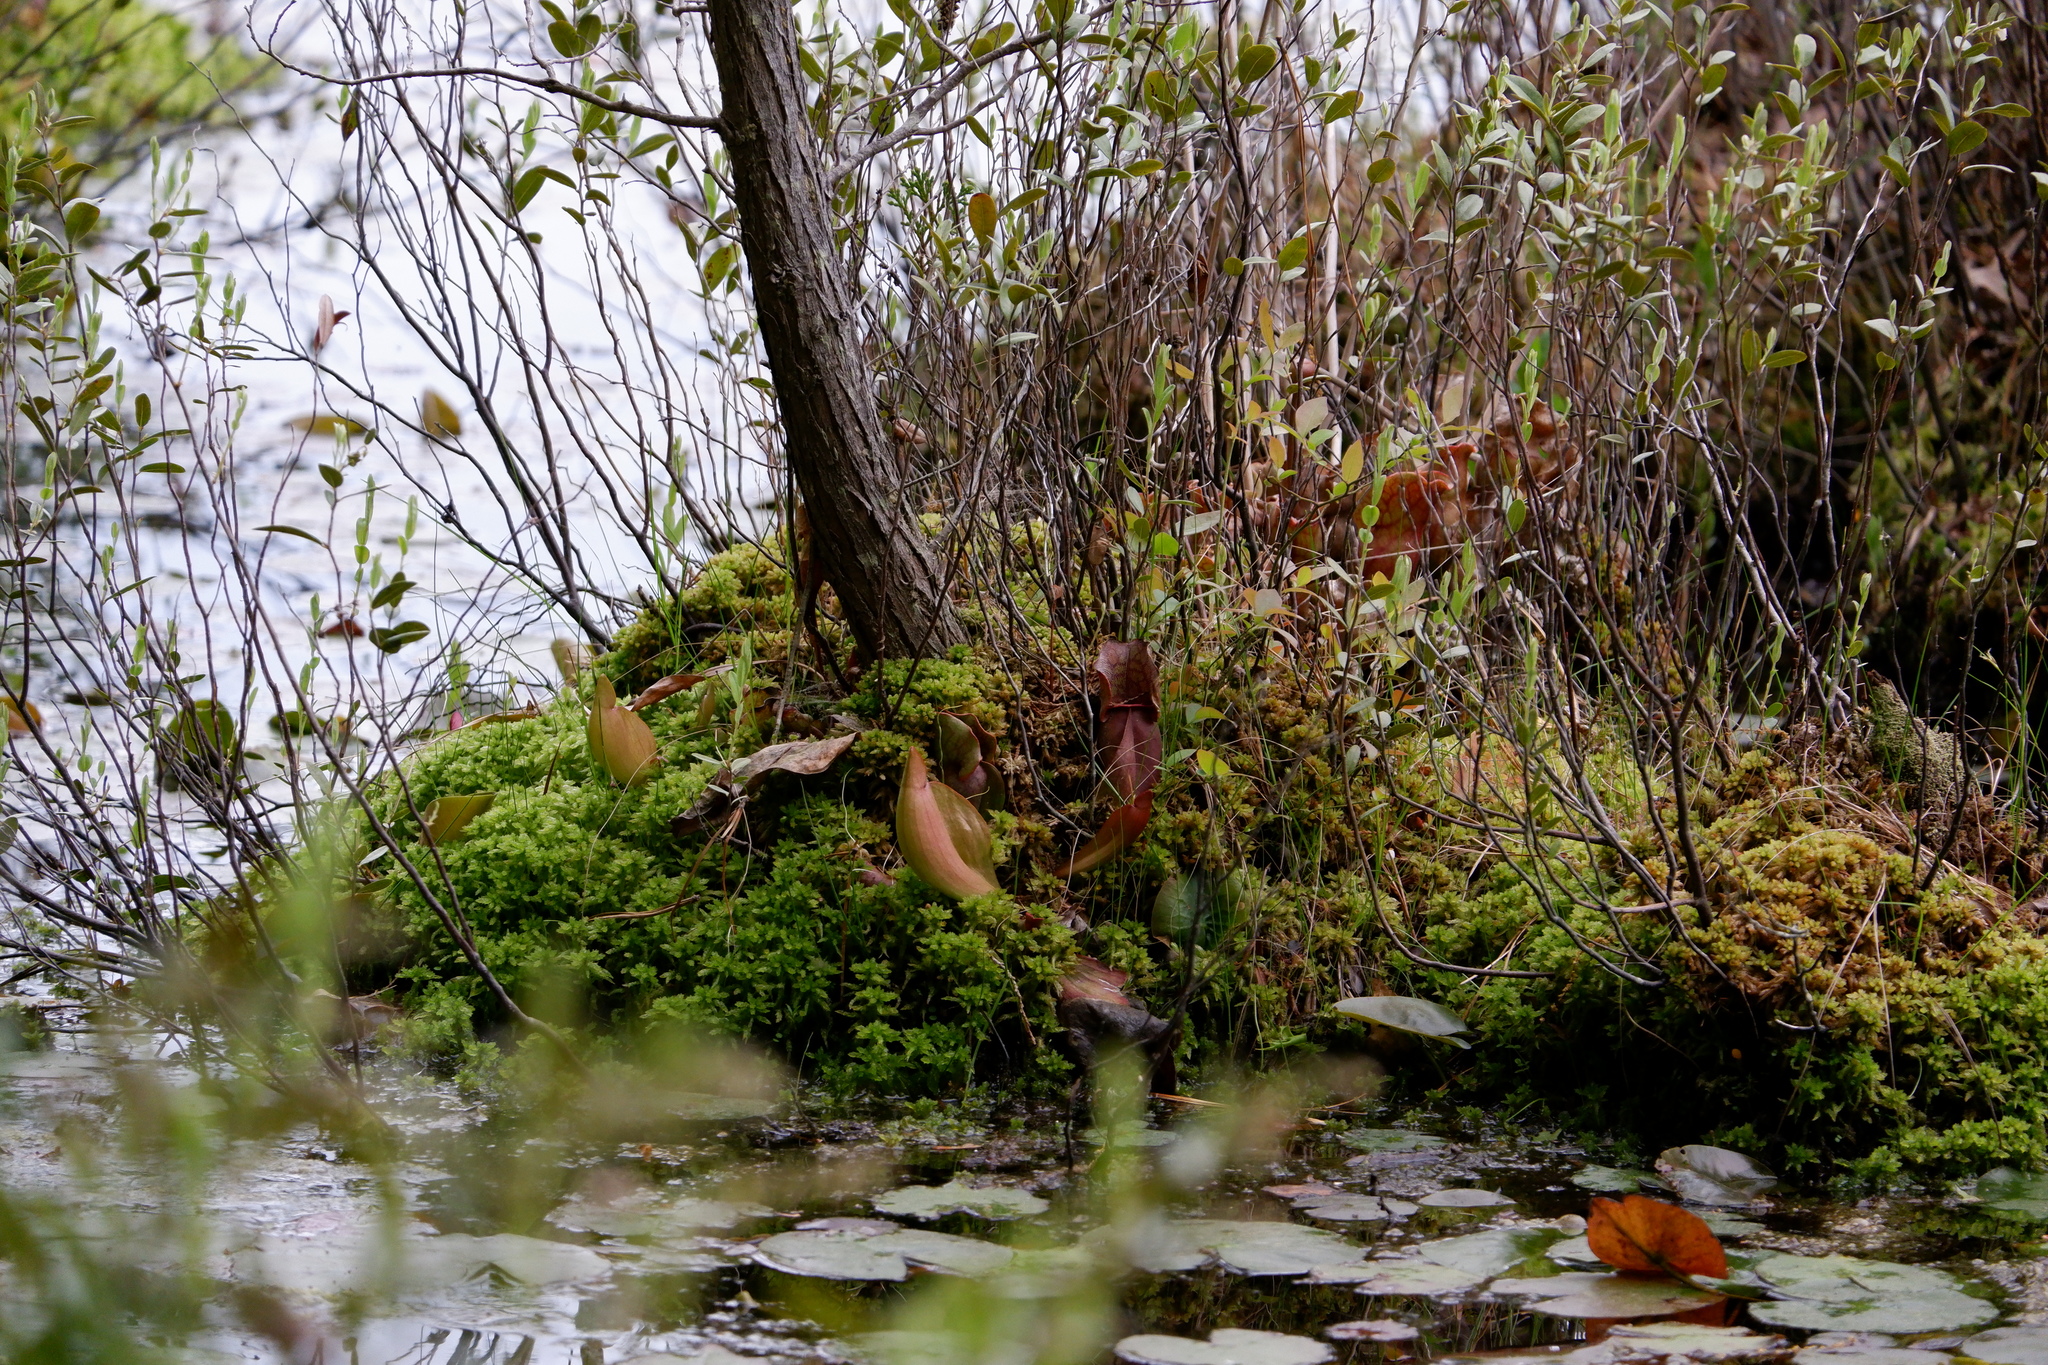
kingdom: Plantae
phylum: Tracheophyta
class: Magnoliopsida
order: Ericales
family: Sarraceniaceae
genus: Sarracenia
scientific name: Sarracenia purpurea
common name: Pitcherplant
